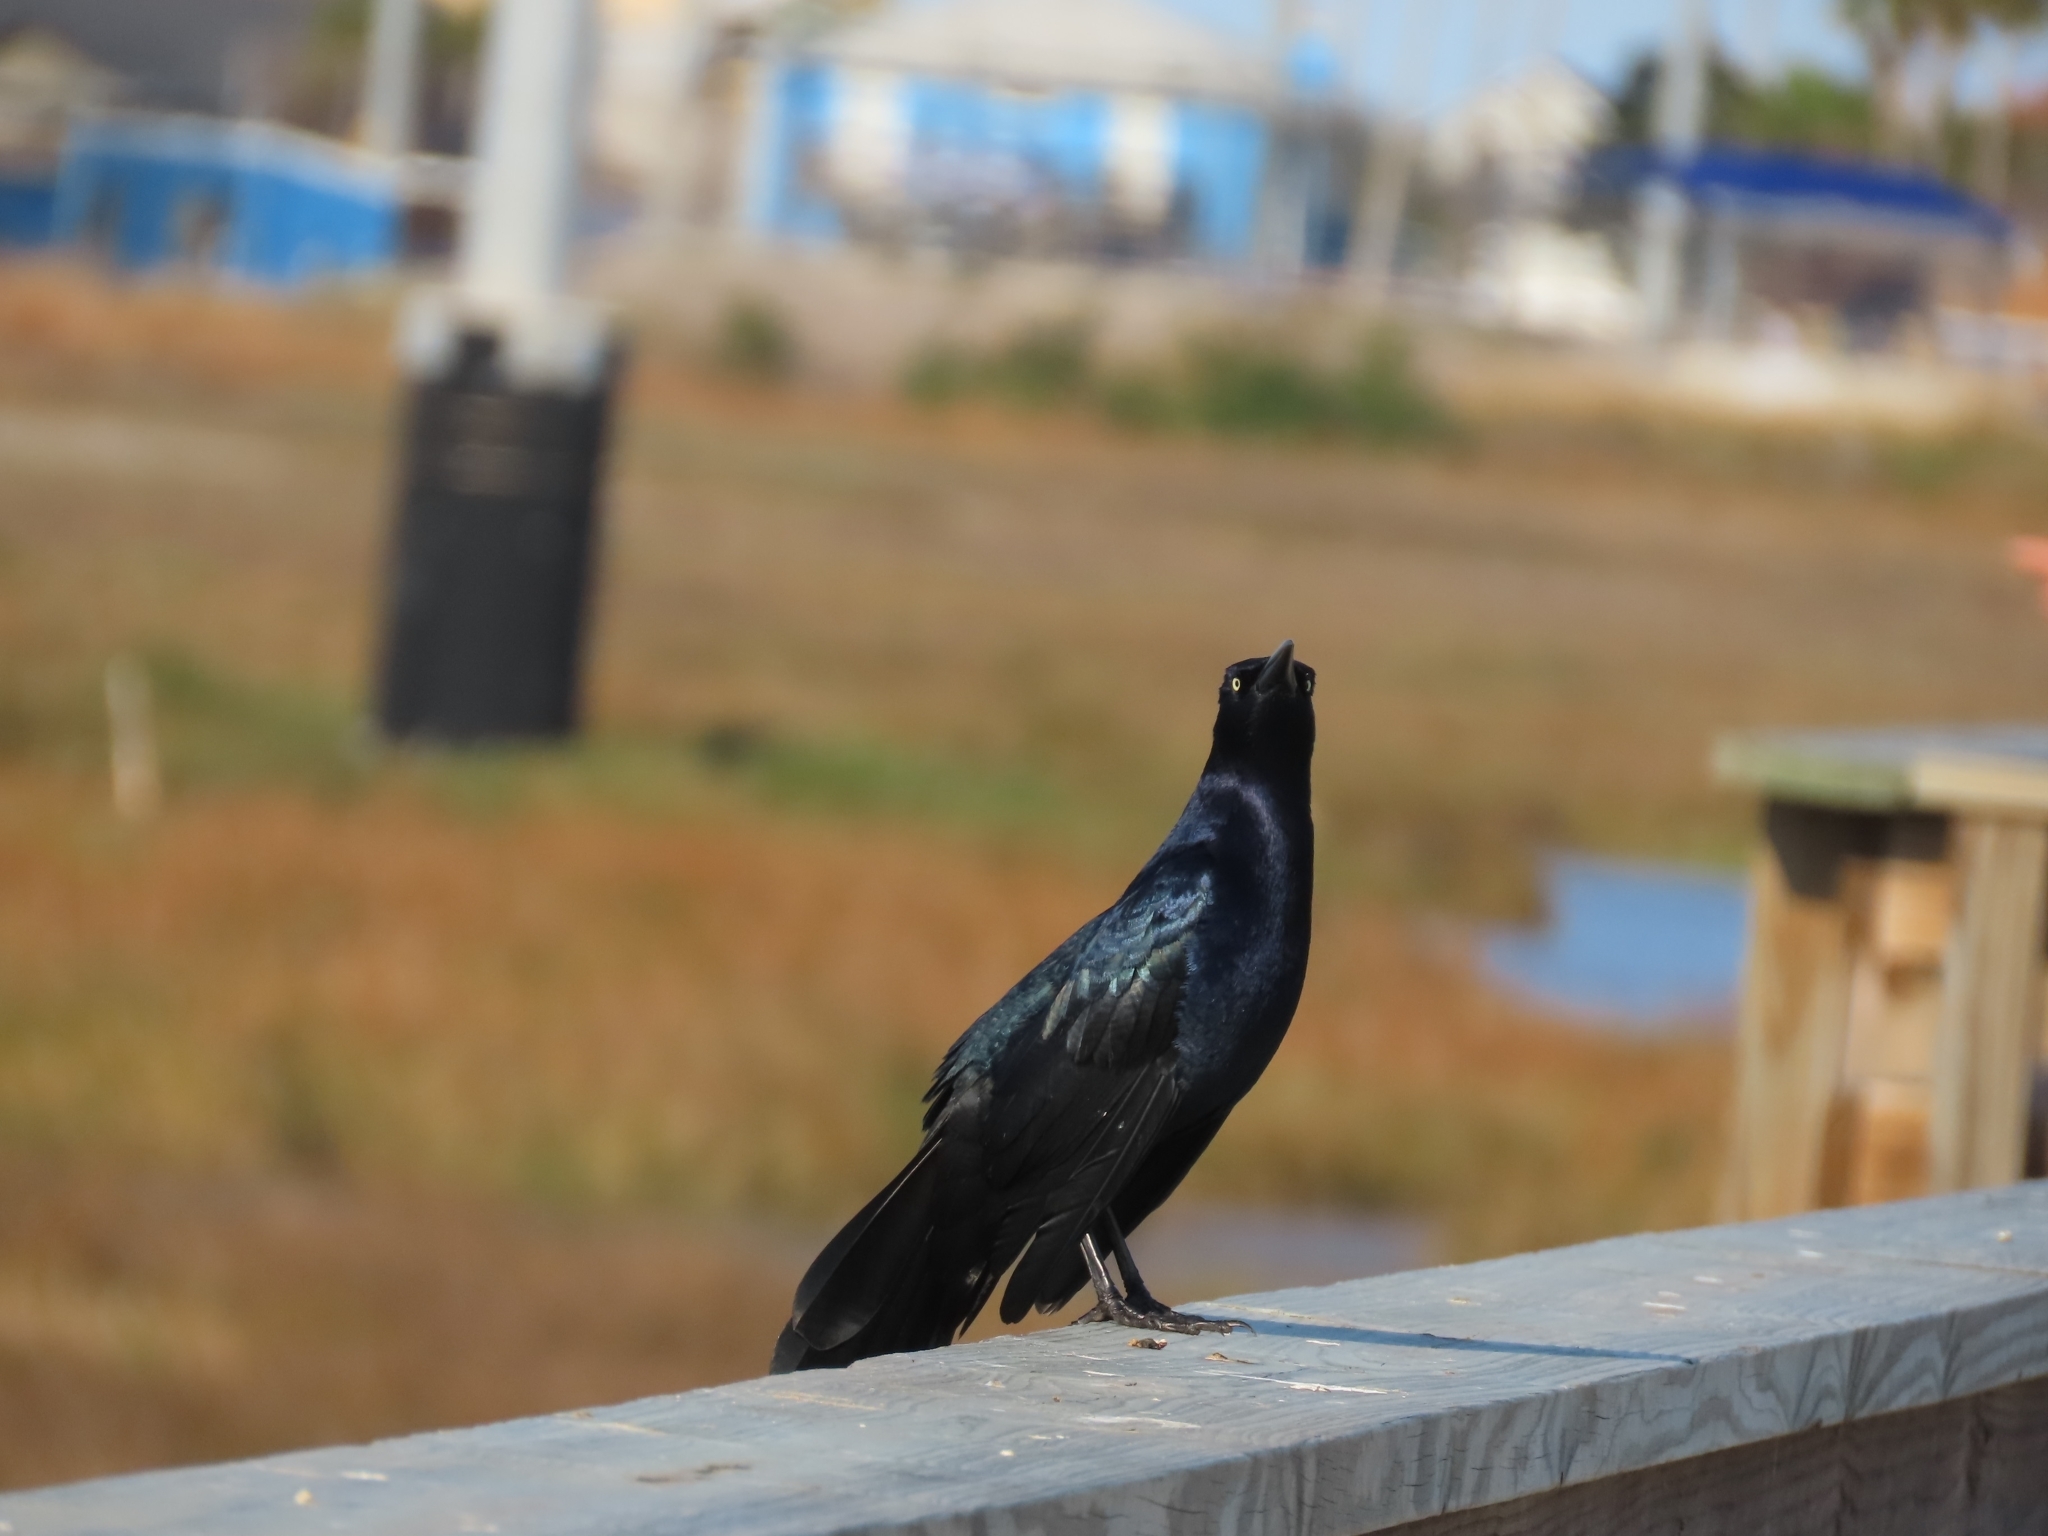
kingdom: Animalia
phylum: Chordata
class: Aves
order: Passeriformes
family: Icteridae
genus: Quiscalus
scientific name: Quiscalus mexicanus
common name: Great-tailed grackle
